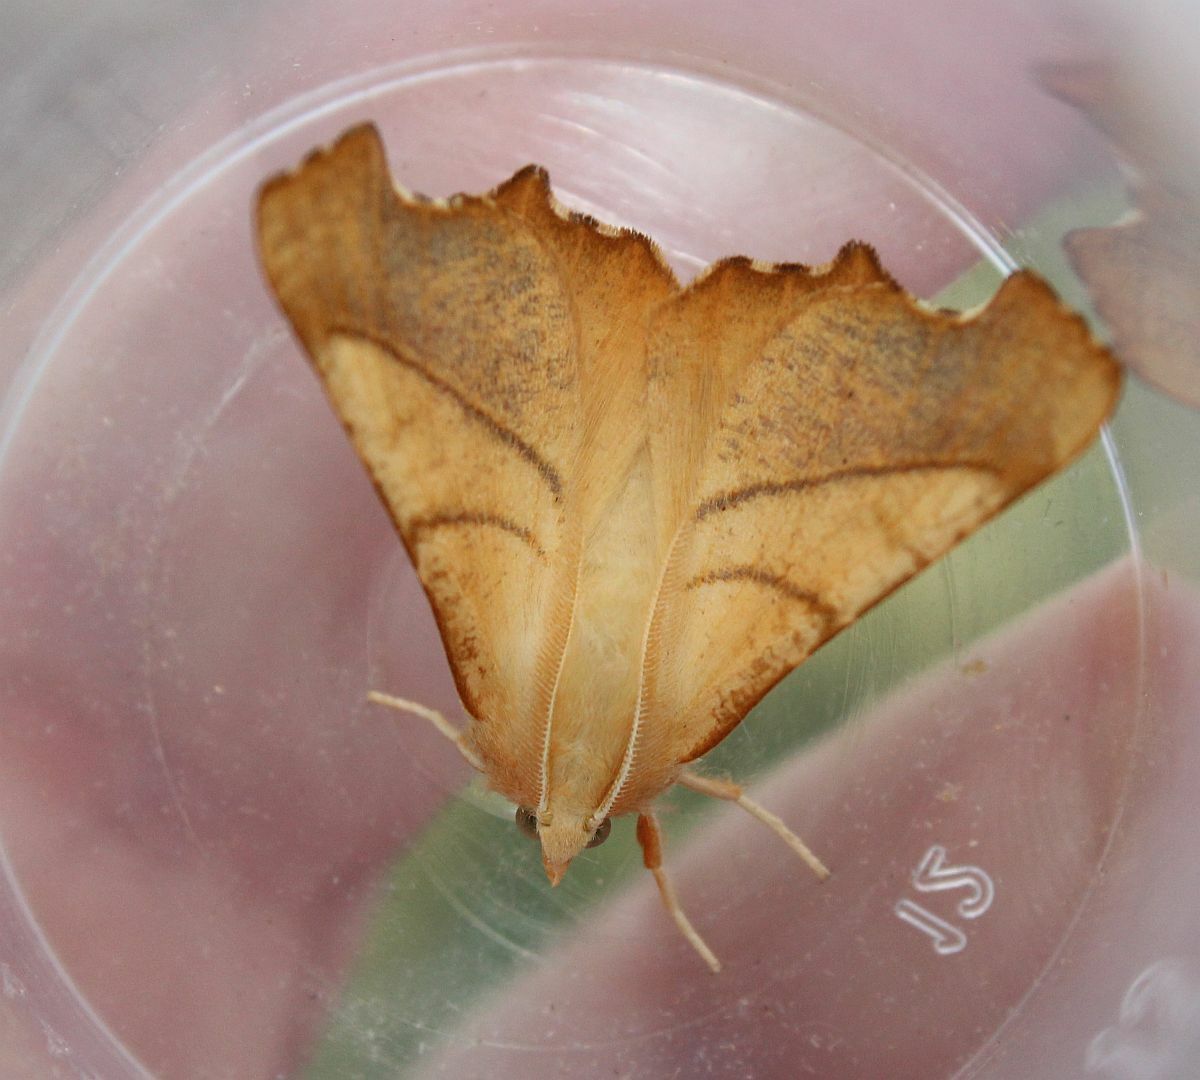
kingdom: Animalia
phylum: Arthropoda
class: Insecta
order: Lepidoptera
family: Geometridae
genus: Ennomos
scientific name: Ennomos fuscantaria
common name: Dusky thorn
